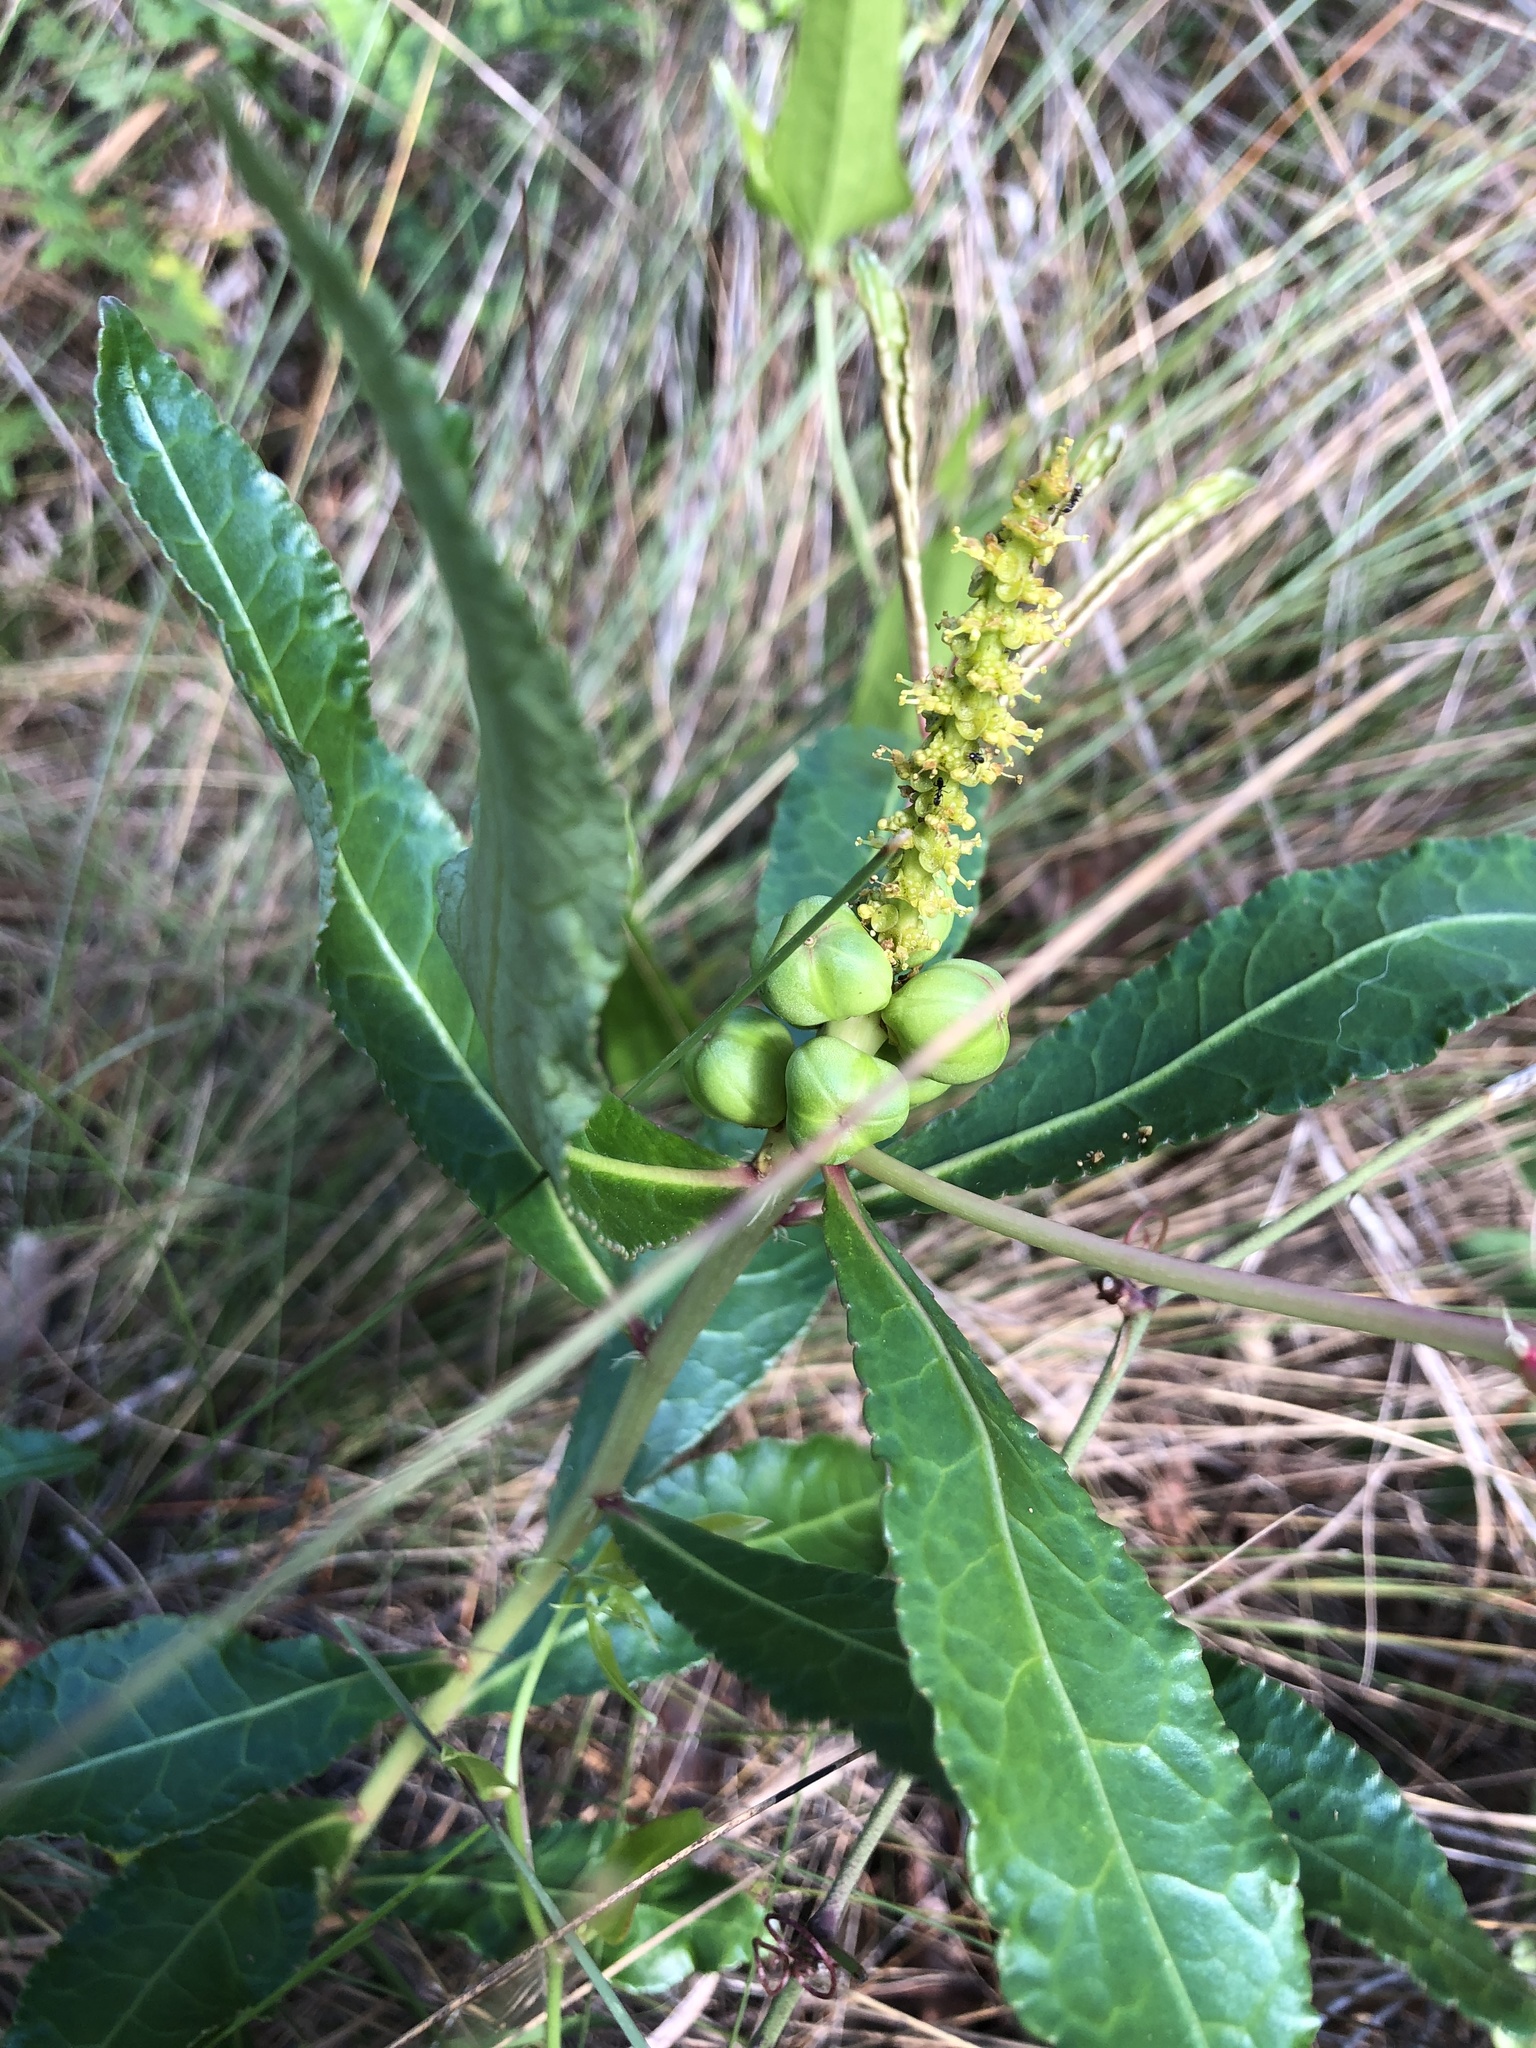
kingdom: Plantae
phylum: Tracheophyta
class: Magnoliopsida
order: Malpighiales
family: Euphorbiaceae
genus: Stillingia
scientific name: Stillingia sylvatica
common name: Queen's-delight
